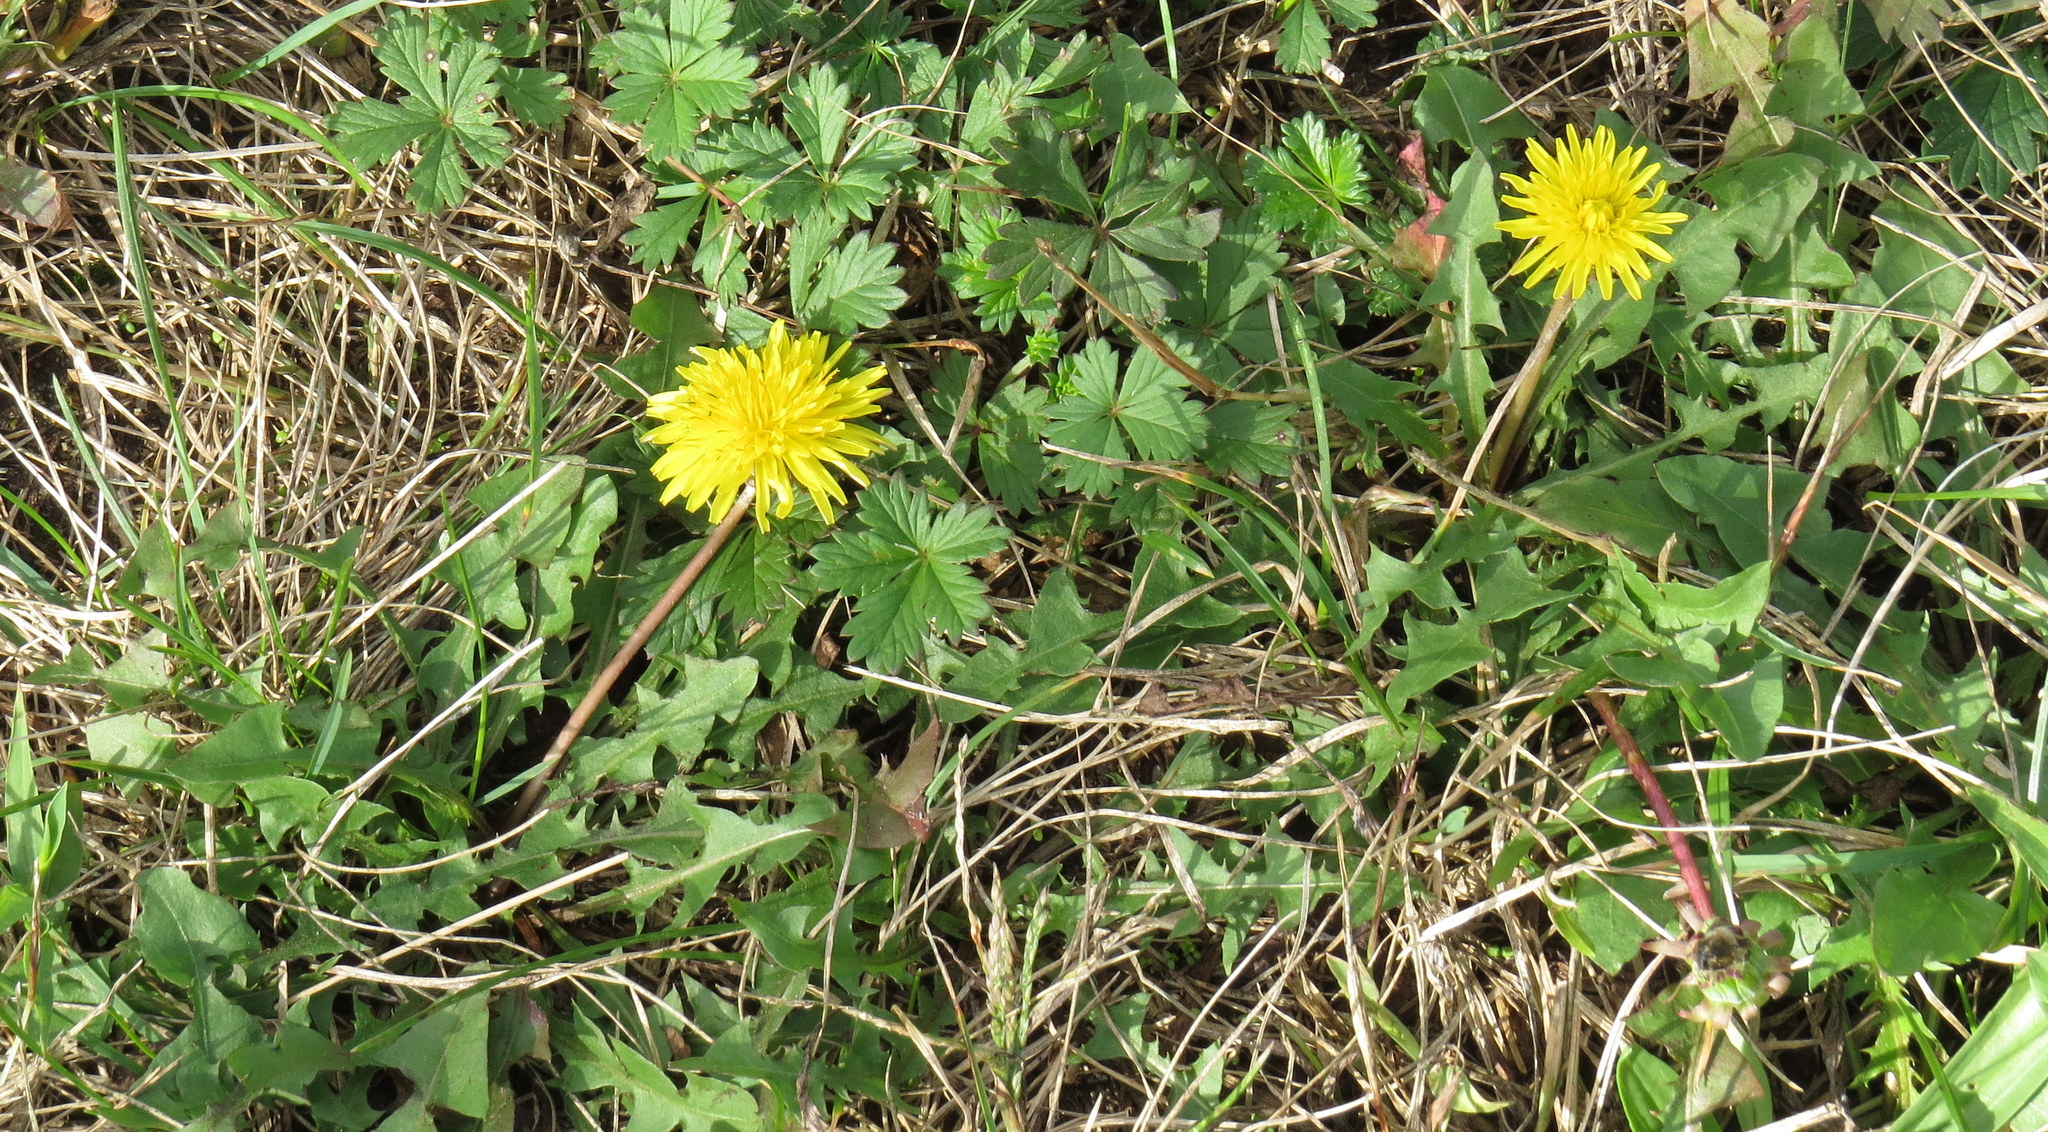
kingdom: Plantae
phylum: Tracheophyta
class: Magnoliopsida
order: Asterales
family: Asteraceae
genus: Taraxacum
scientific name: Taraxacum officinale
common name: Common dandelion
